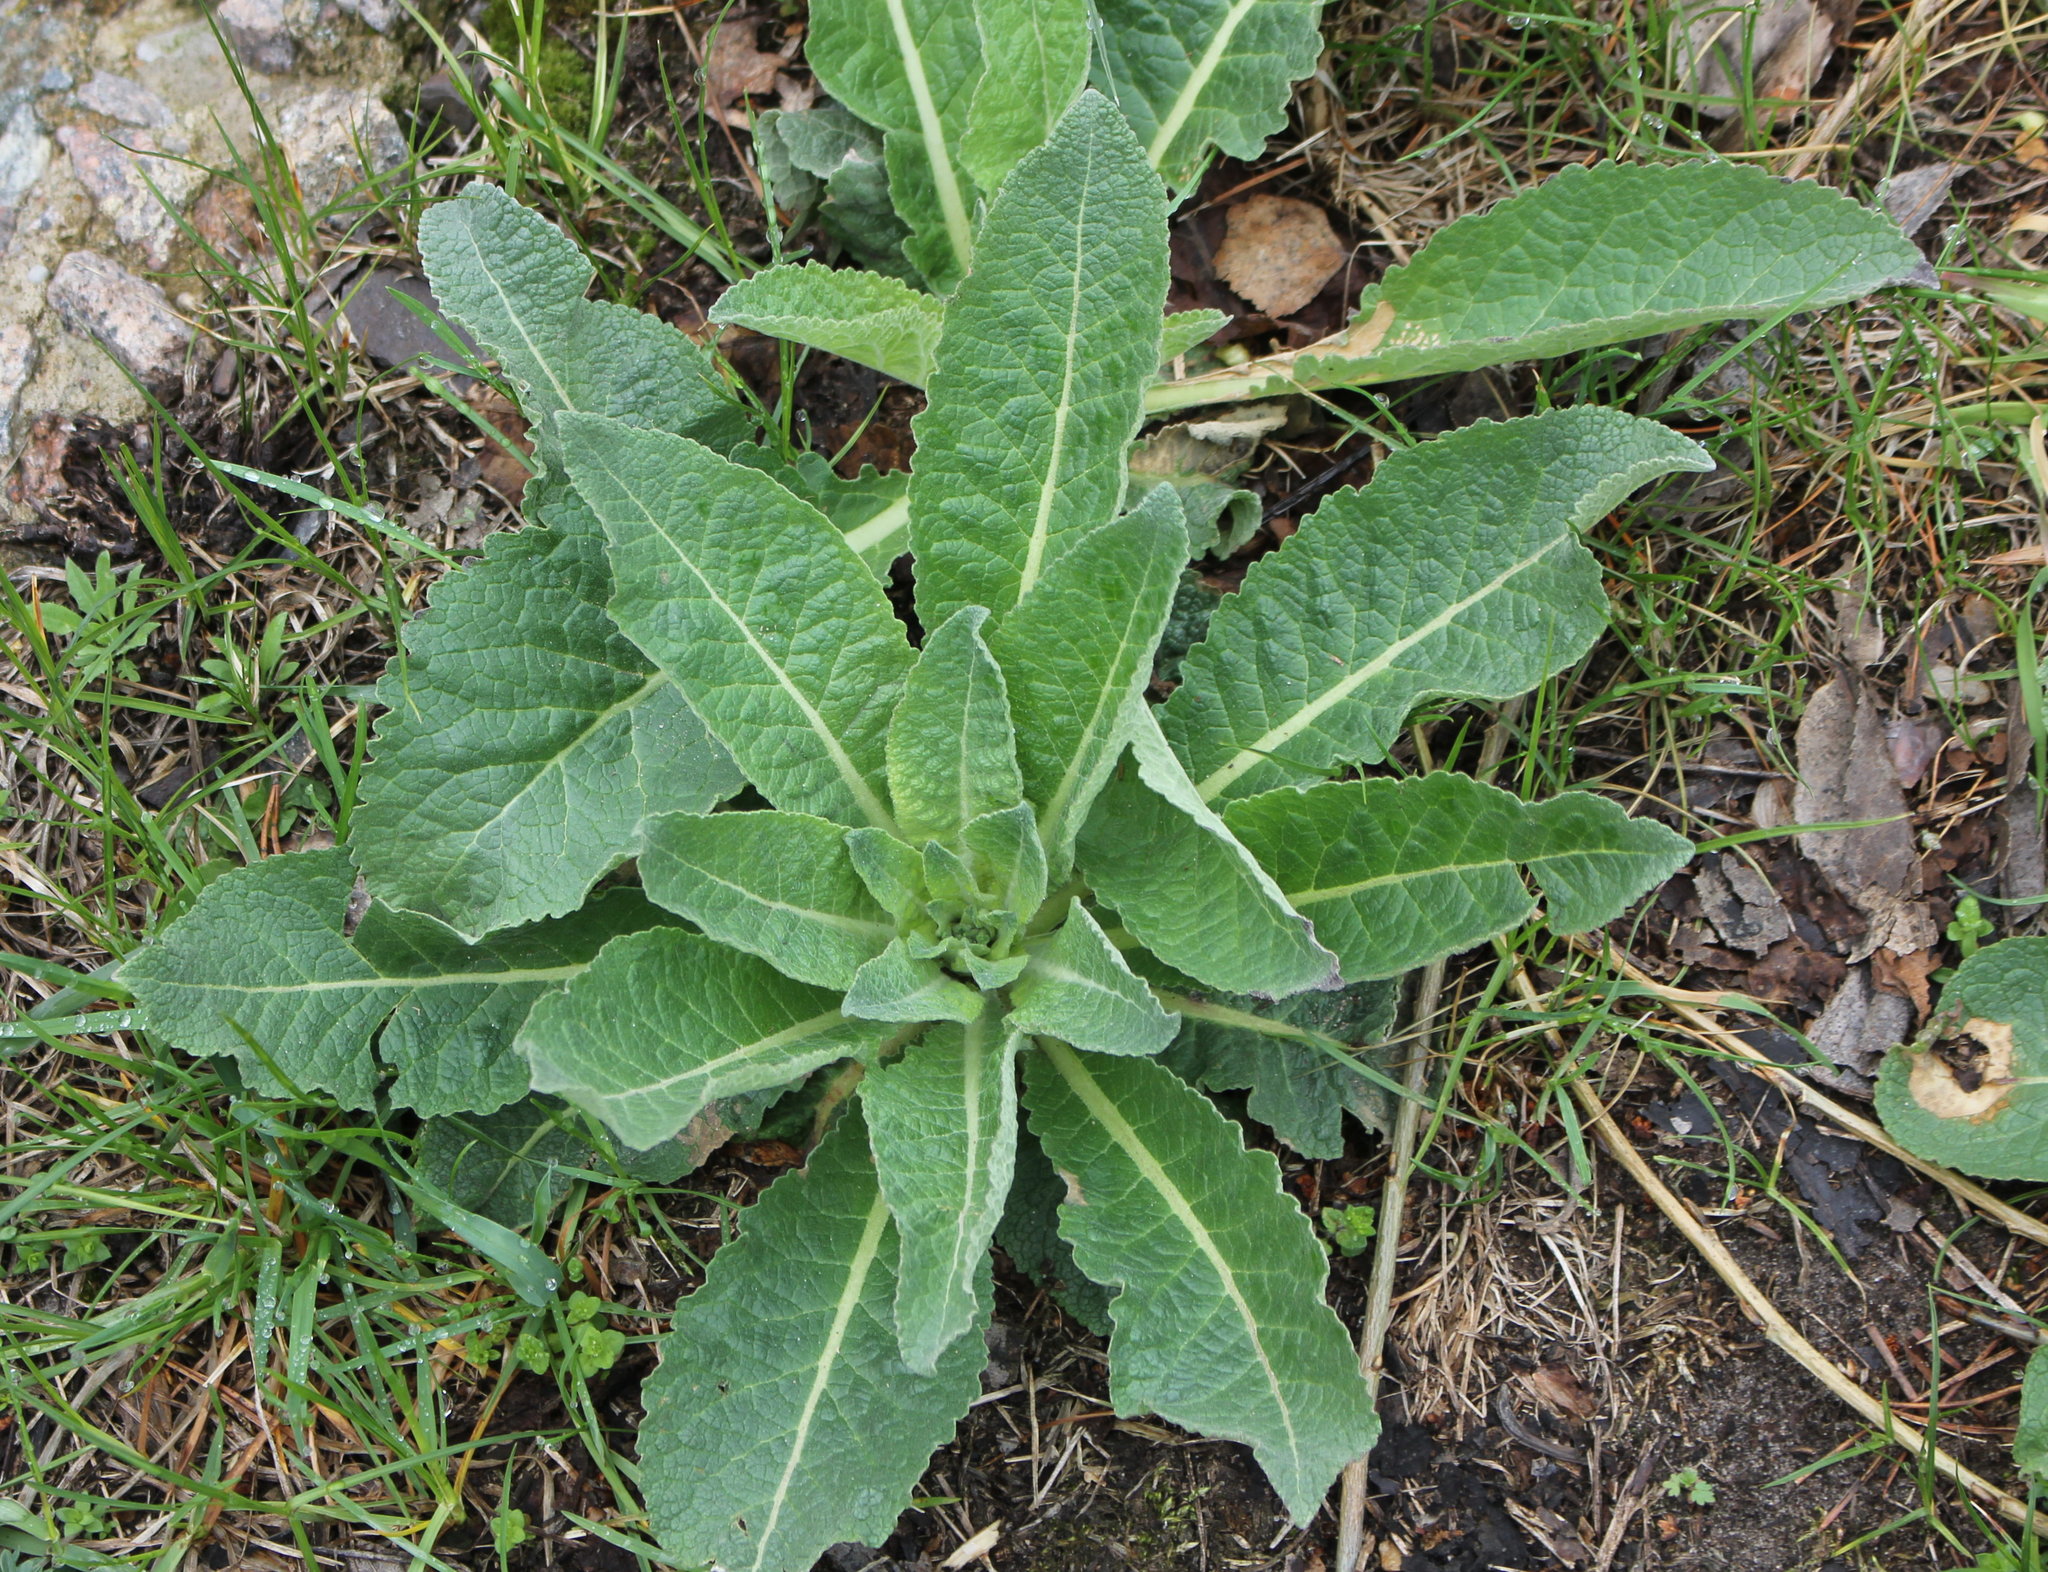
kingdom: Plantae
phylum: Tracheophyta
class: Magnoliopsida
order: Lamiales
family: Scrophulariaceae
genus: Verbascum
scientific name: Verbascum lychnitis
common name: White mullein
